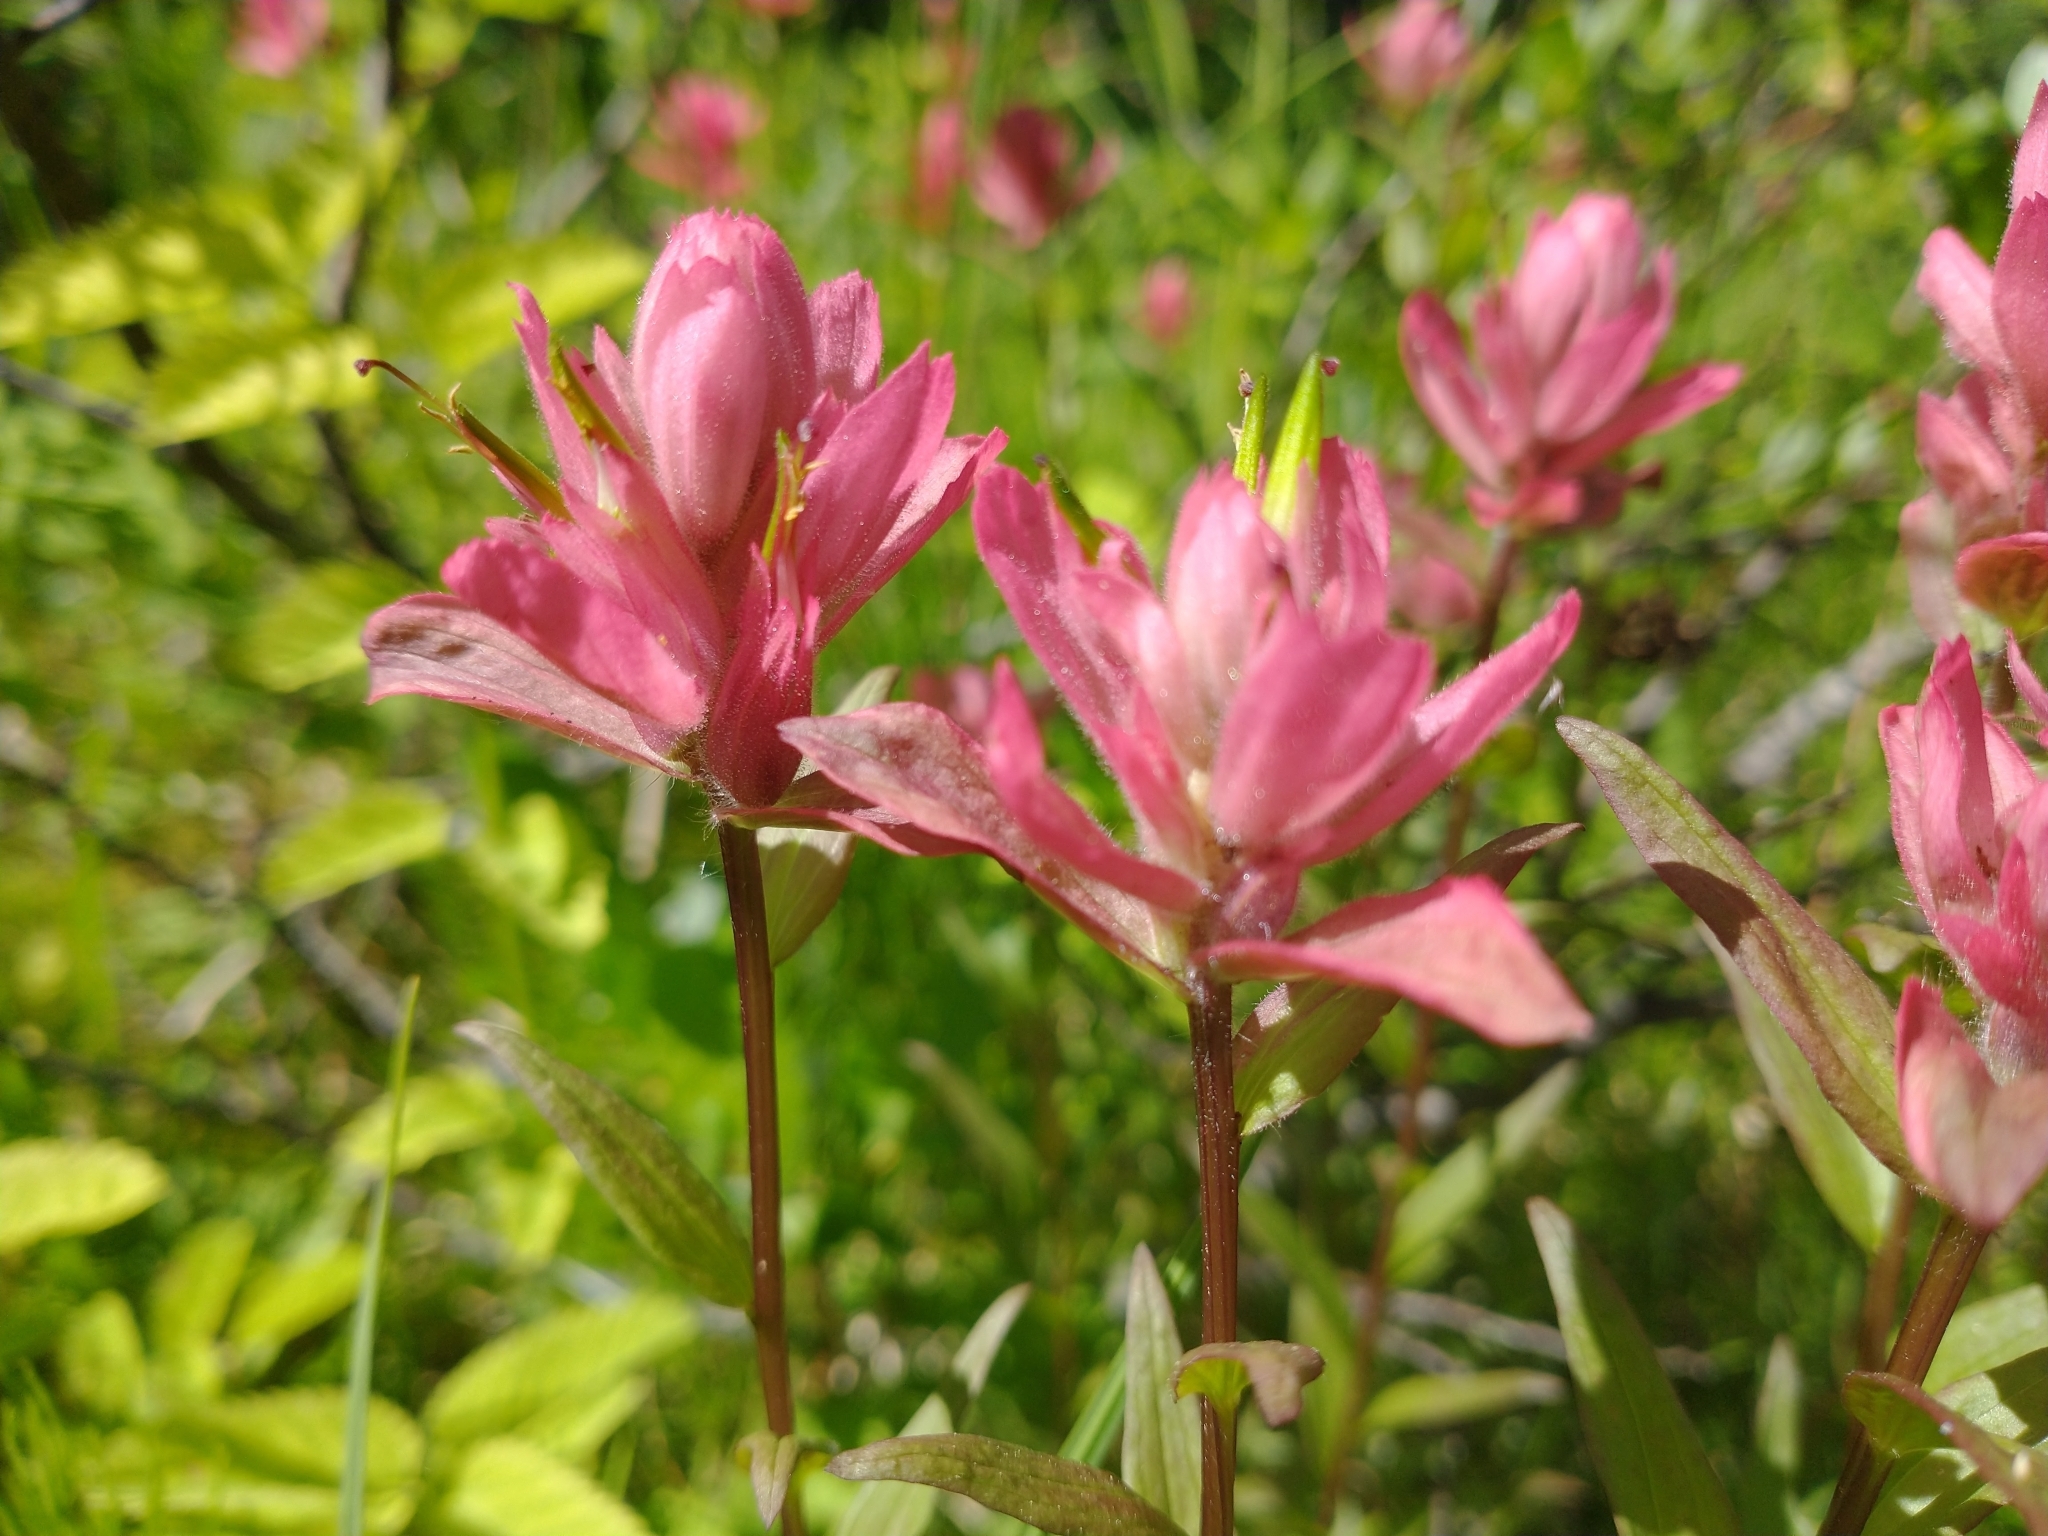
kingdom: Plantae
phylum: Tracheophyta
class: Magnoliopsida
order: Lamiales
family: Orobanchaceae
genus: Castilleja
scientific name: Castilleja miniata
